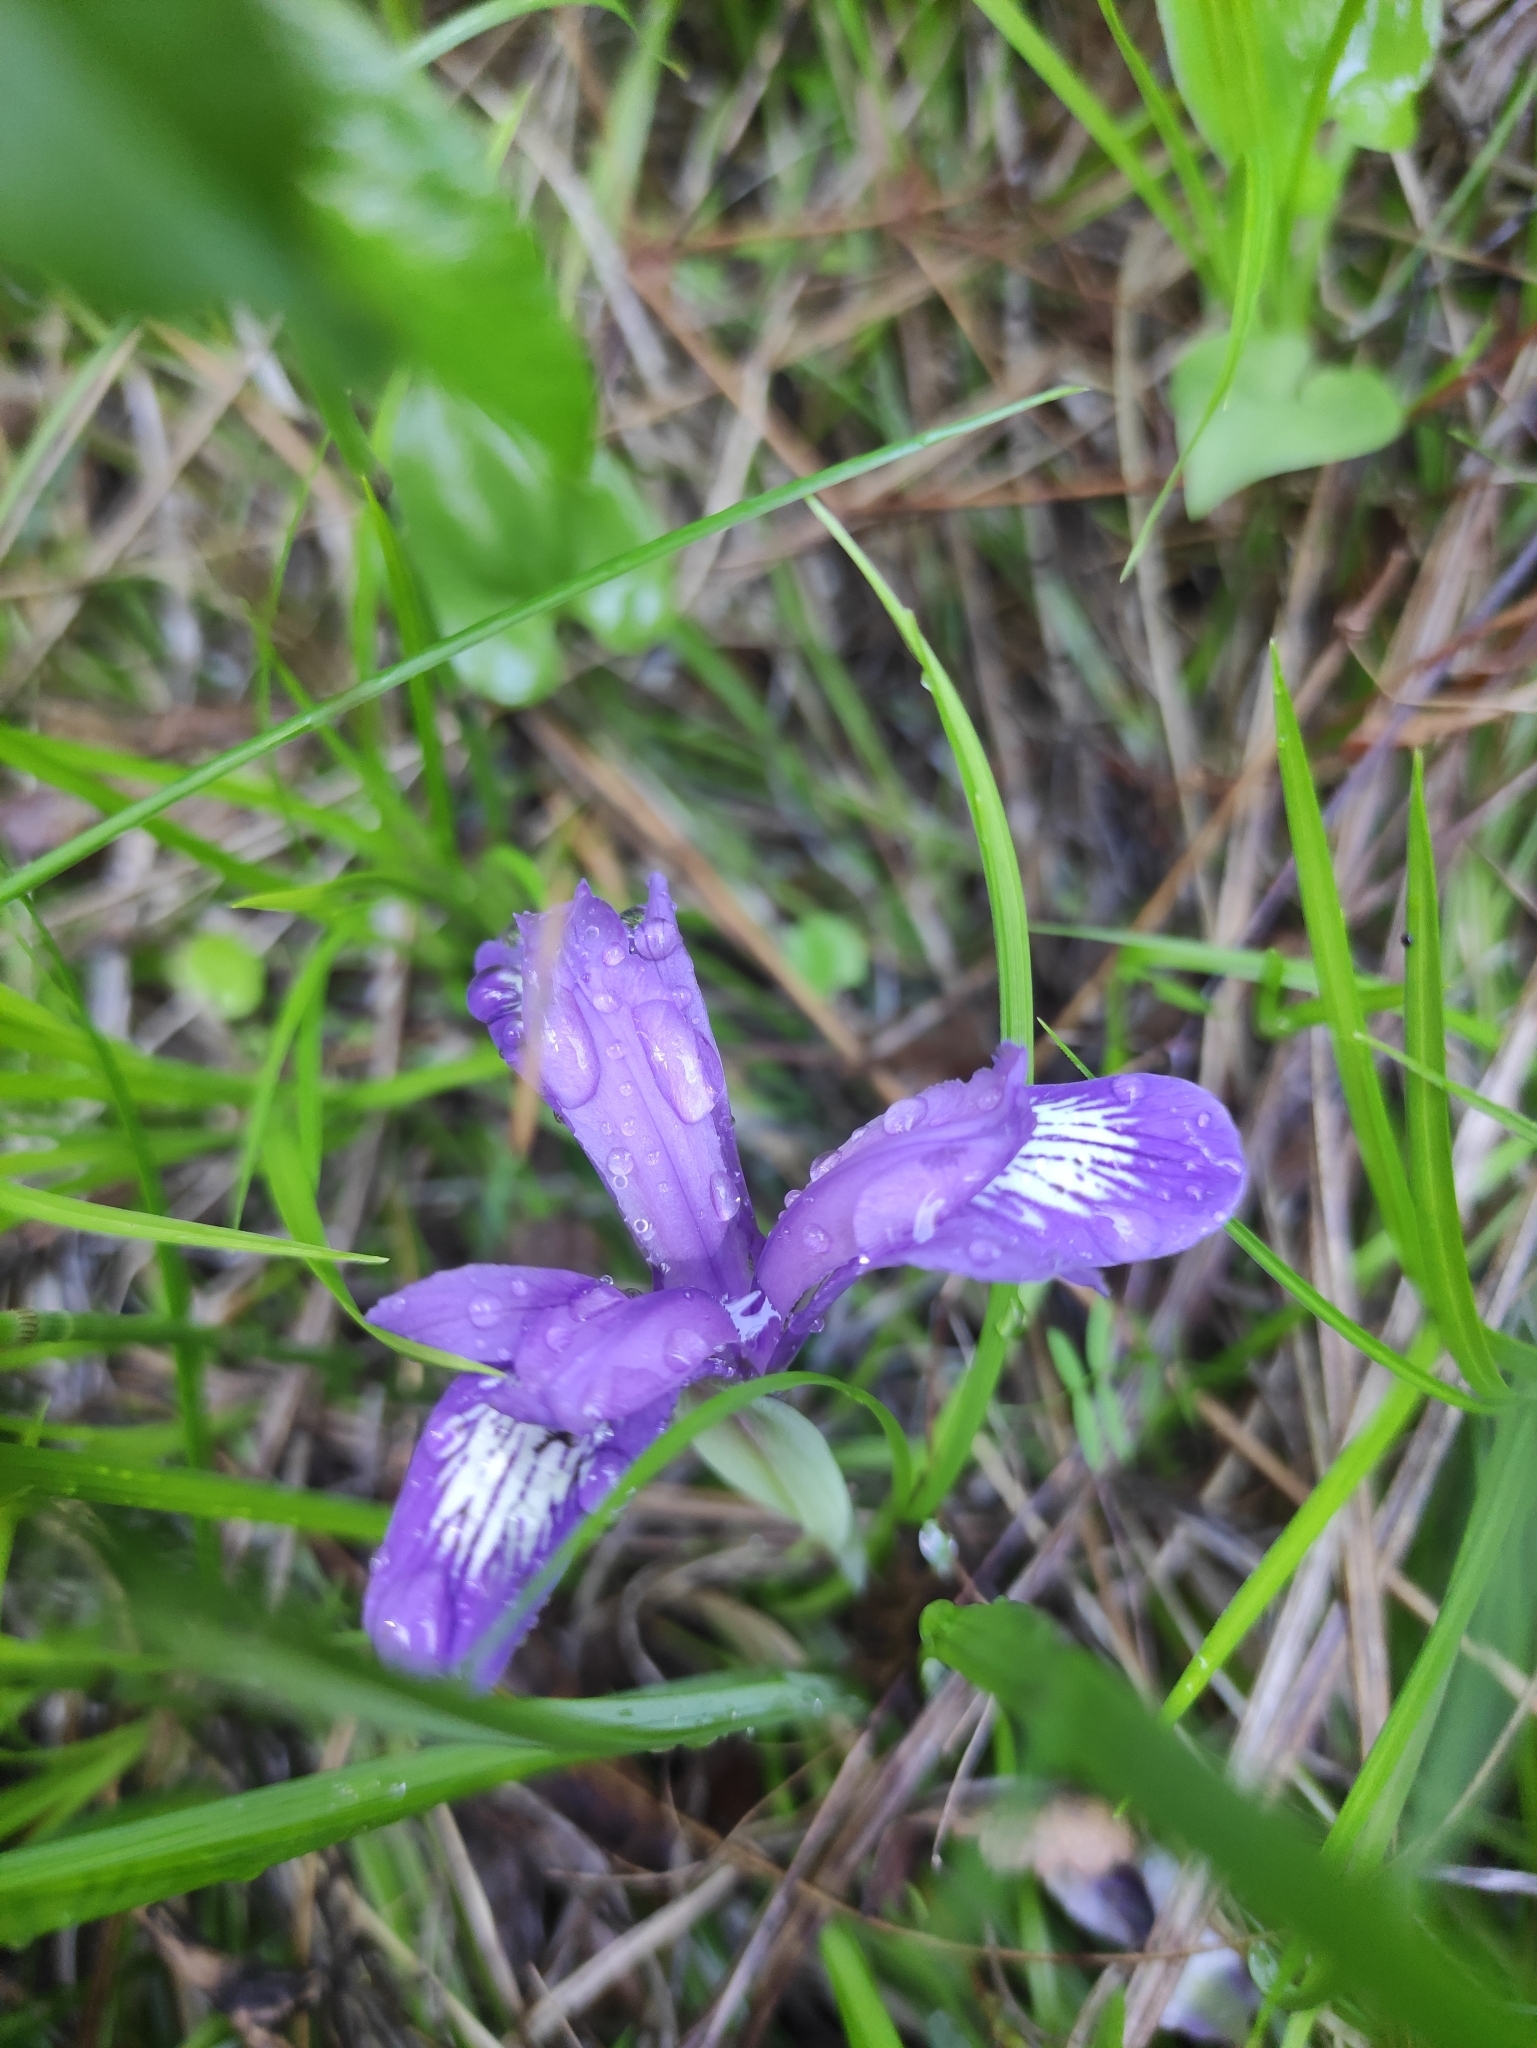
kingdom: Plantae
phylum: Tracheophyta
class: Liliopsida
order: Asparagales
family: Iridaceae
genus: Iris
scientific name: Iris ruthenica
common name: Purple-bract iris
